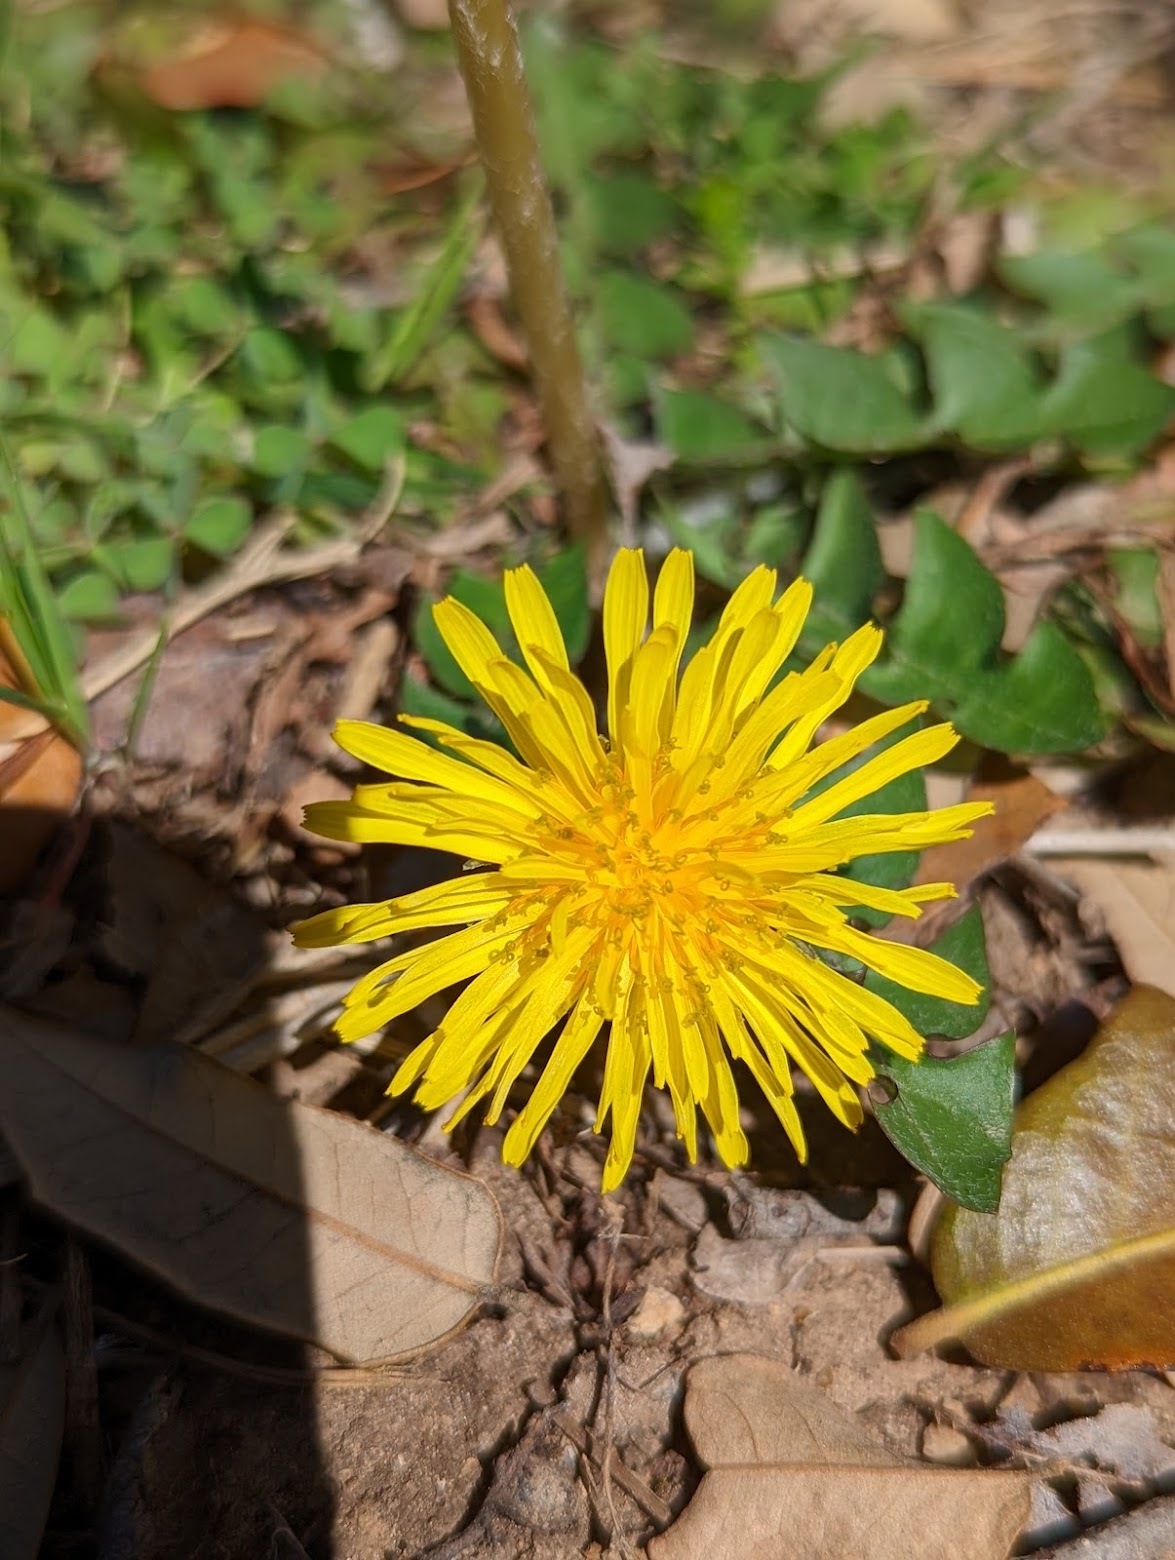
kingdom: Plantae
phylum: Tracheophyta
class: Magnoliopsida
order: Asterales
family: Asteraceae
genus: Taraxacum
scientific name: Taraxacum officinale
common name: Common dandelion
